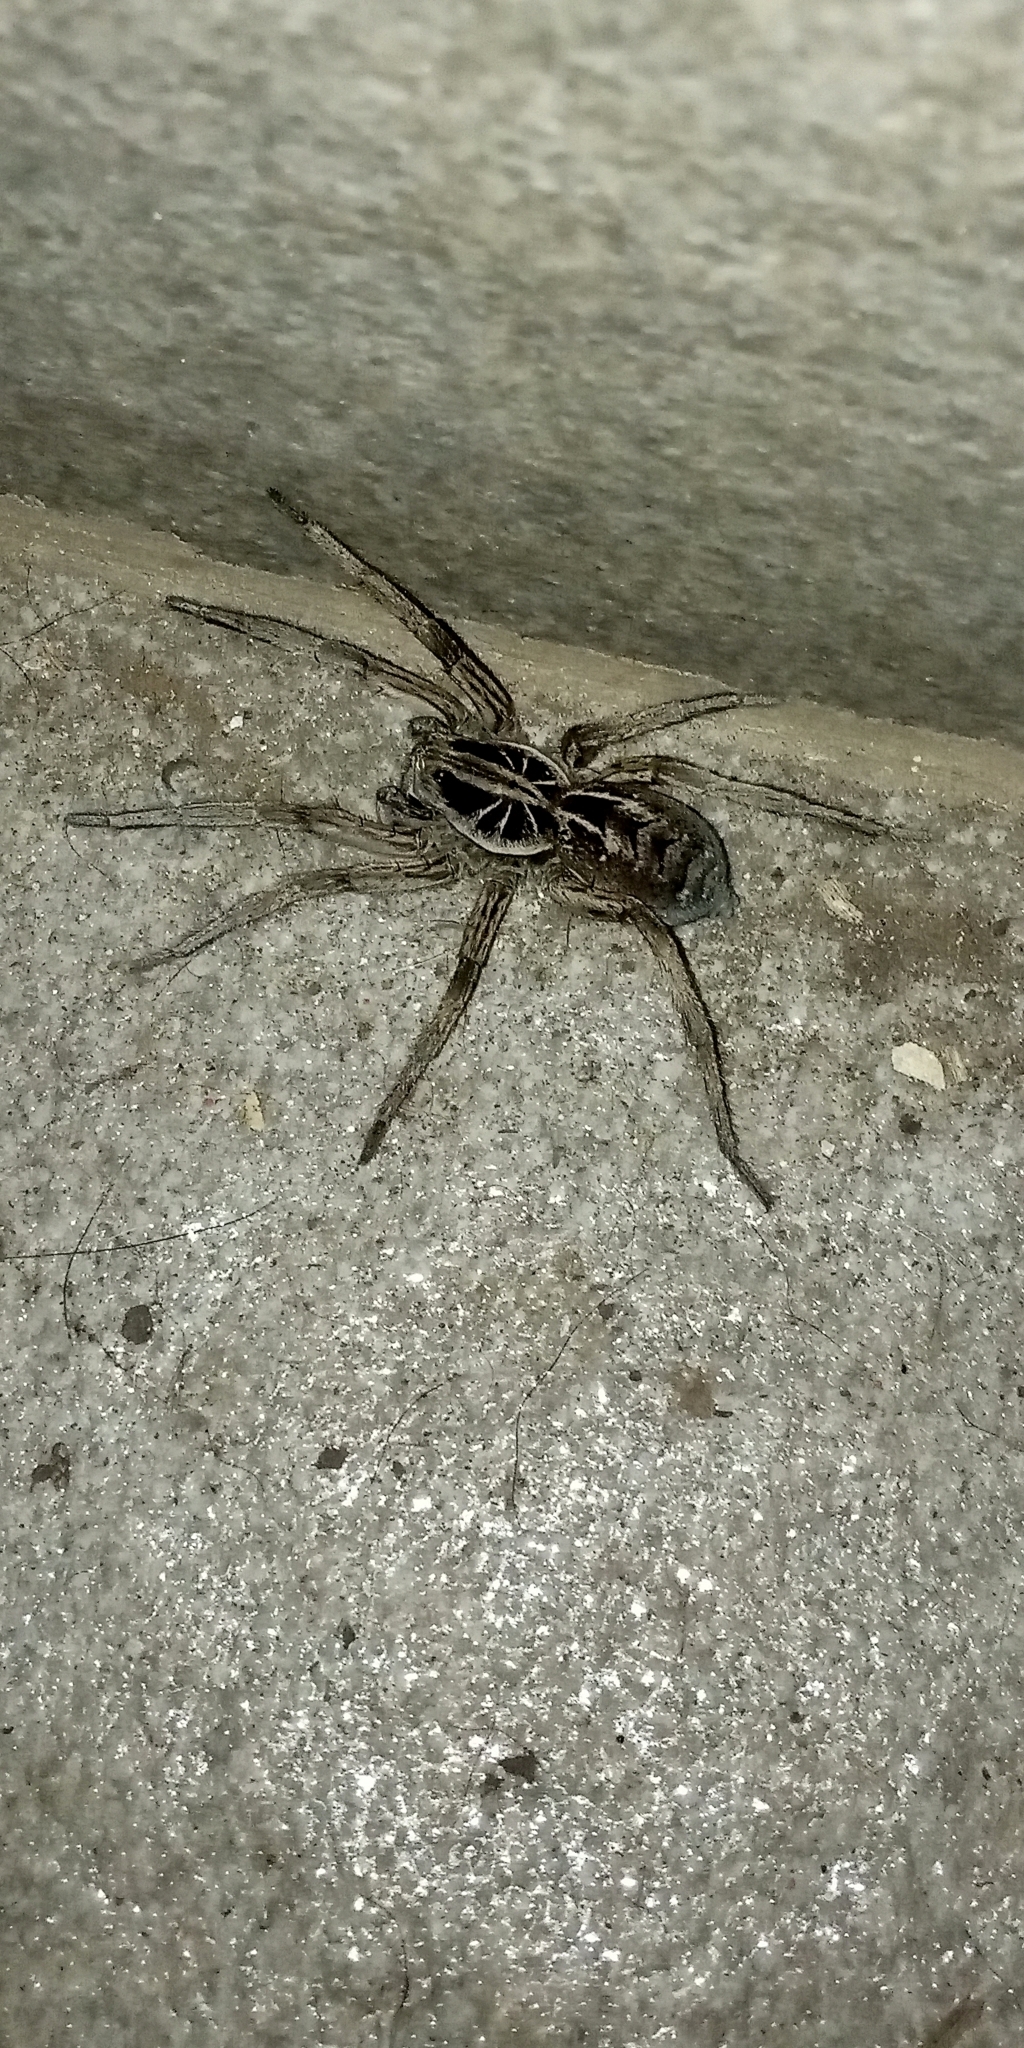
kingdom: Animalia
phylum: Arthropoda
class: Arachnida
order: Araneae
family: Lycosidae
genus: Lycosa
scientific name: Lycosa pampeana
